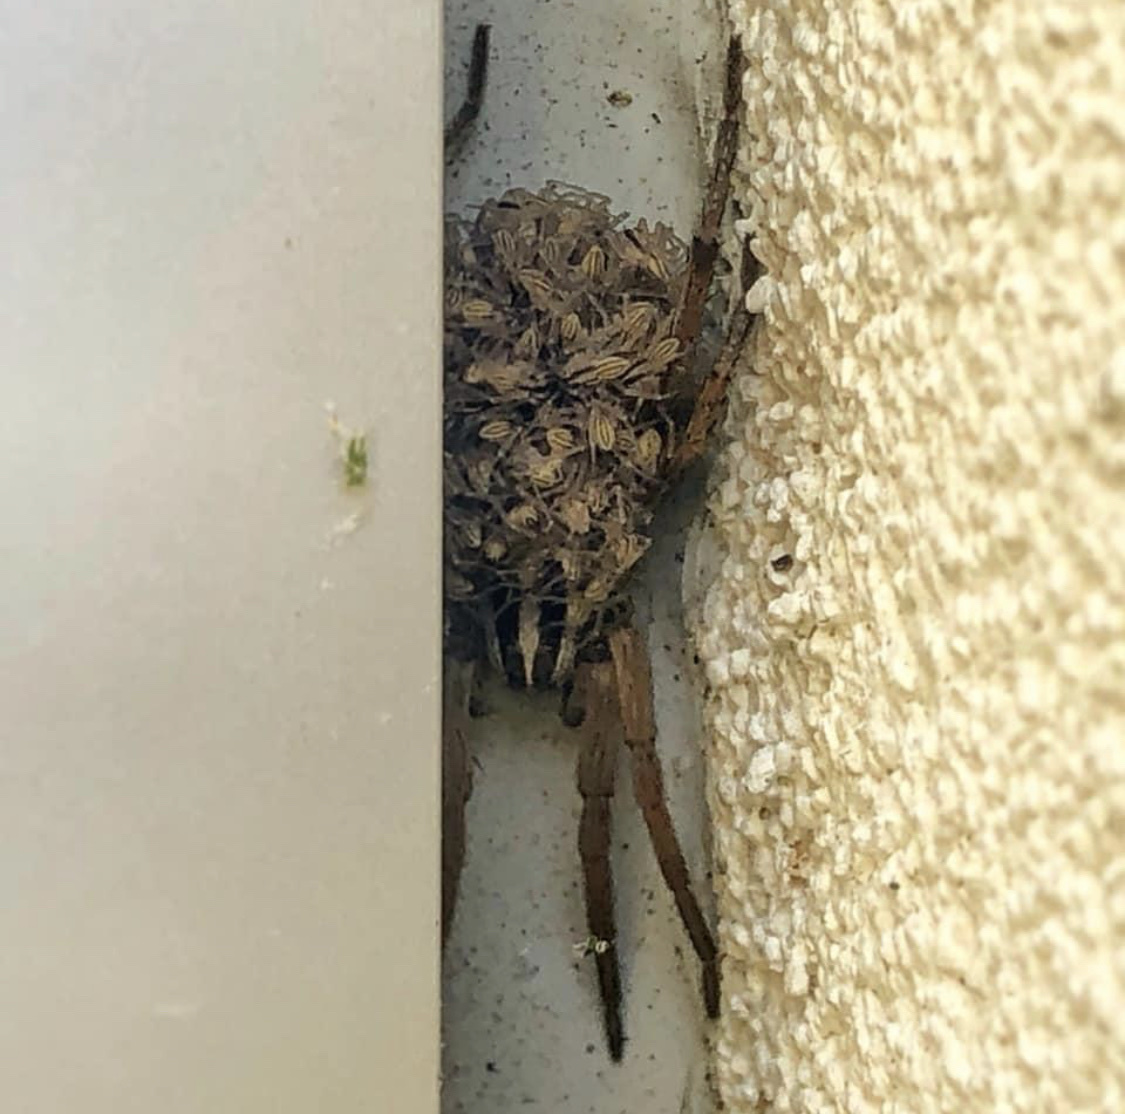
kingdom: Animalia
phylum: Arthropoda
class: Arachnida
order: Araneae
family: Lycosidae
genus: Rabidosa
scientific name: Rabidosa
